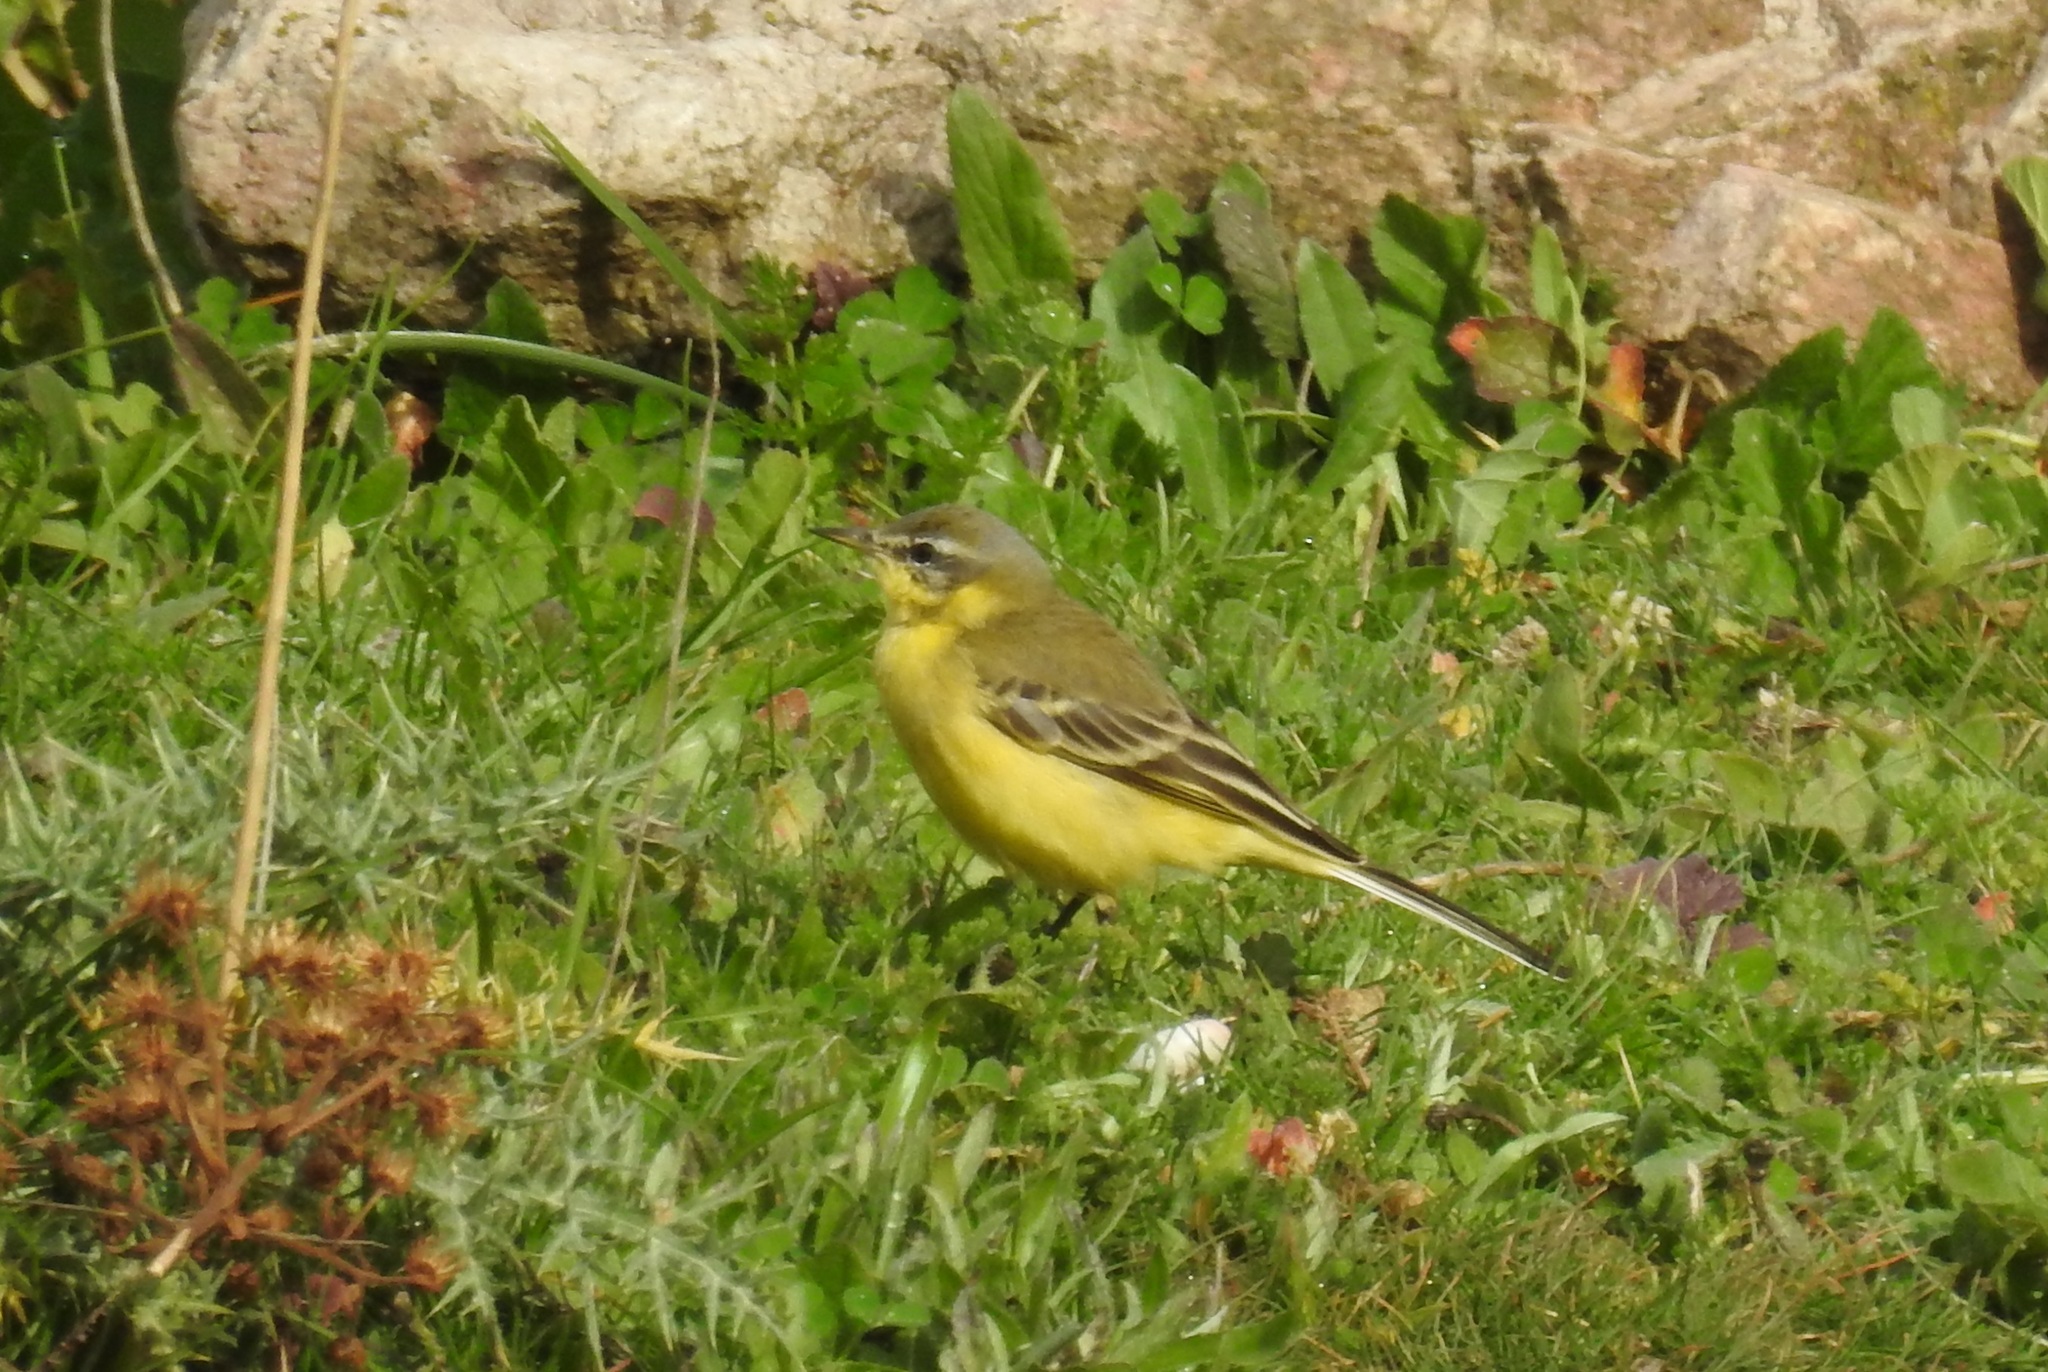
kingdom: Animalia
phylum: Chordata
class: Aves
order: Passeriformes
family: Motacillidae
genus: Motacilla
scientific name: Motacilla flava
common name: Western yellow wagtail
